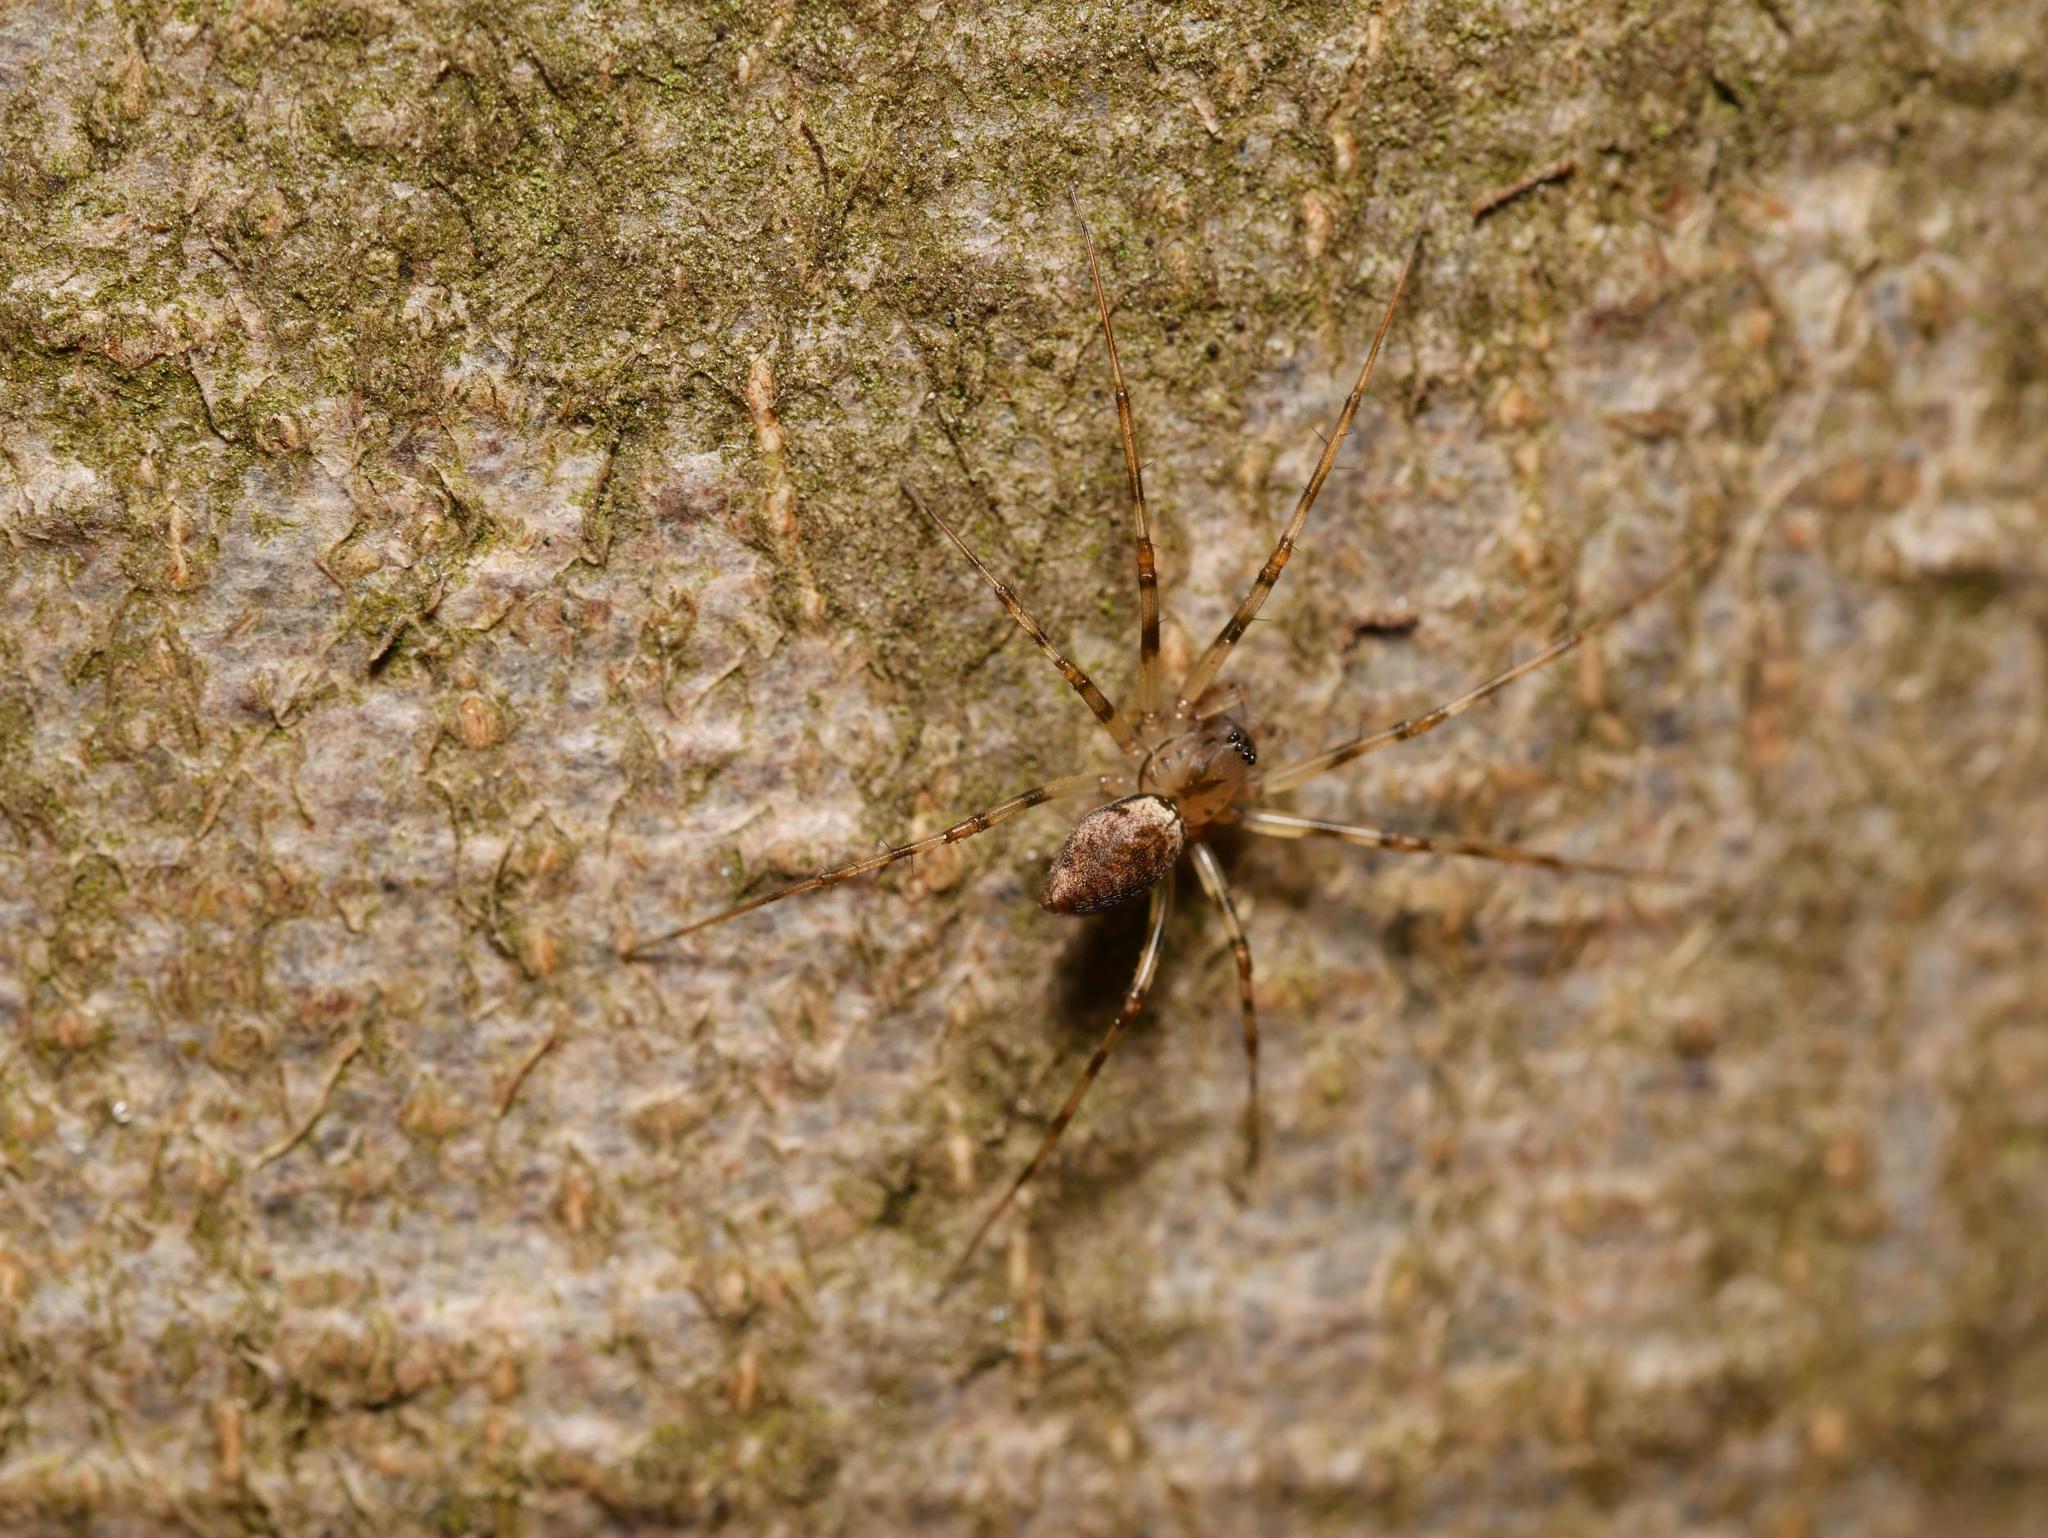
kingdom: Animalia
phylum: Arthropoda
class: Arachnida
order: Araneae
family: Linyphiidae
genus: Drapetisca
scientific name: Drapetisca socialis
